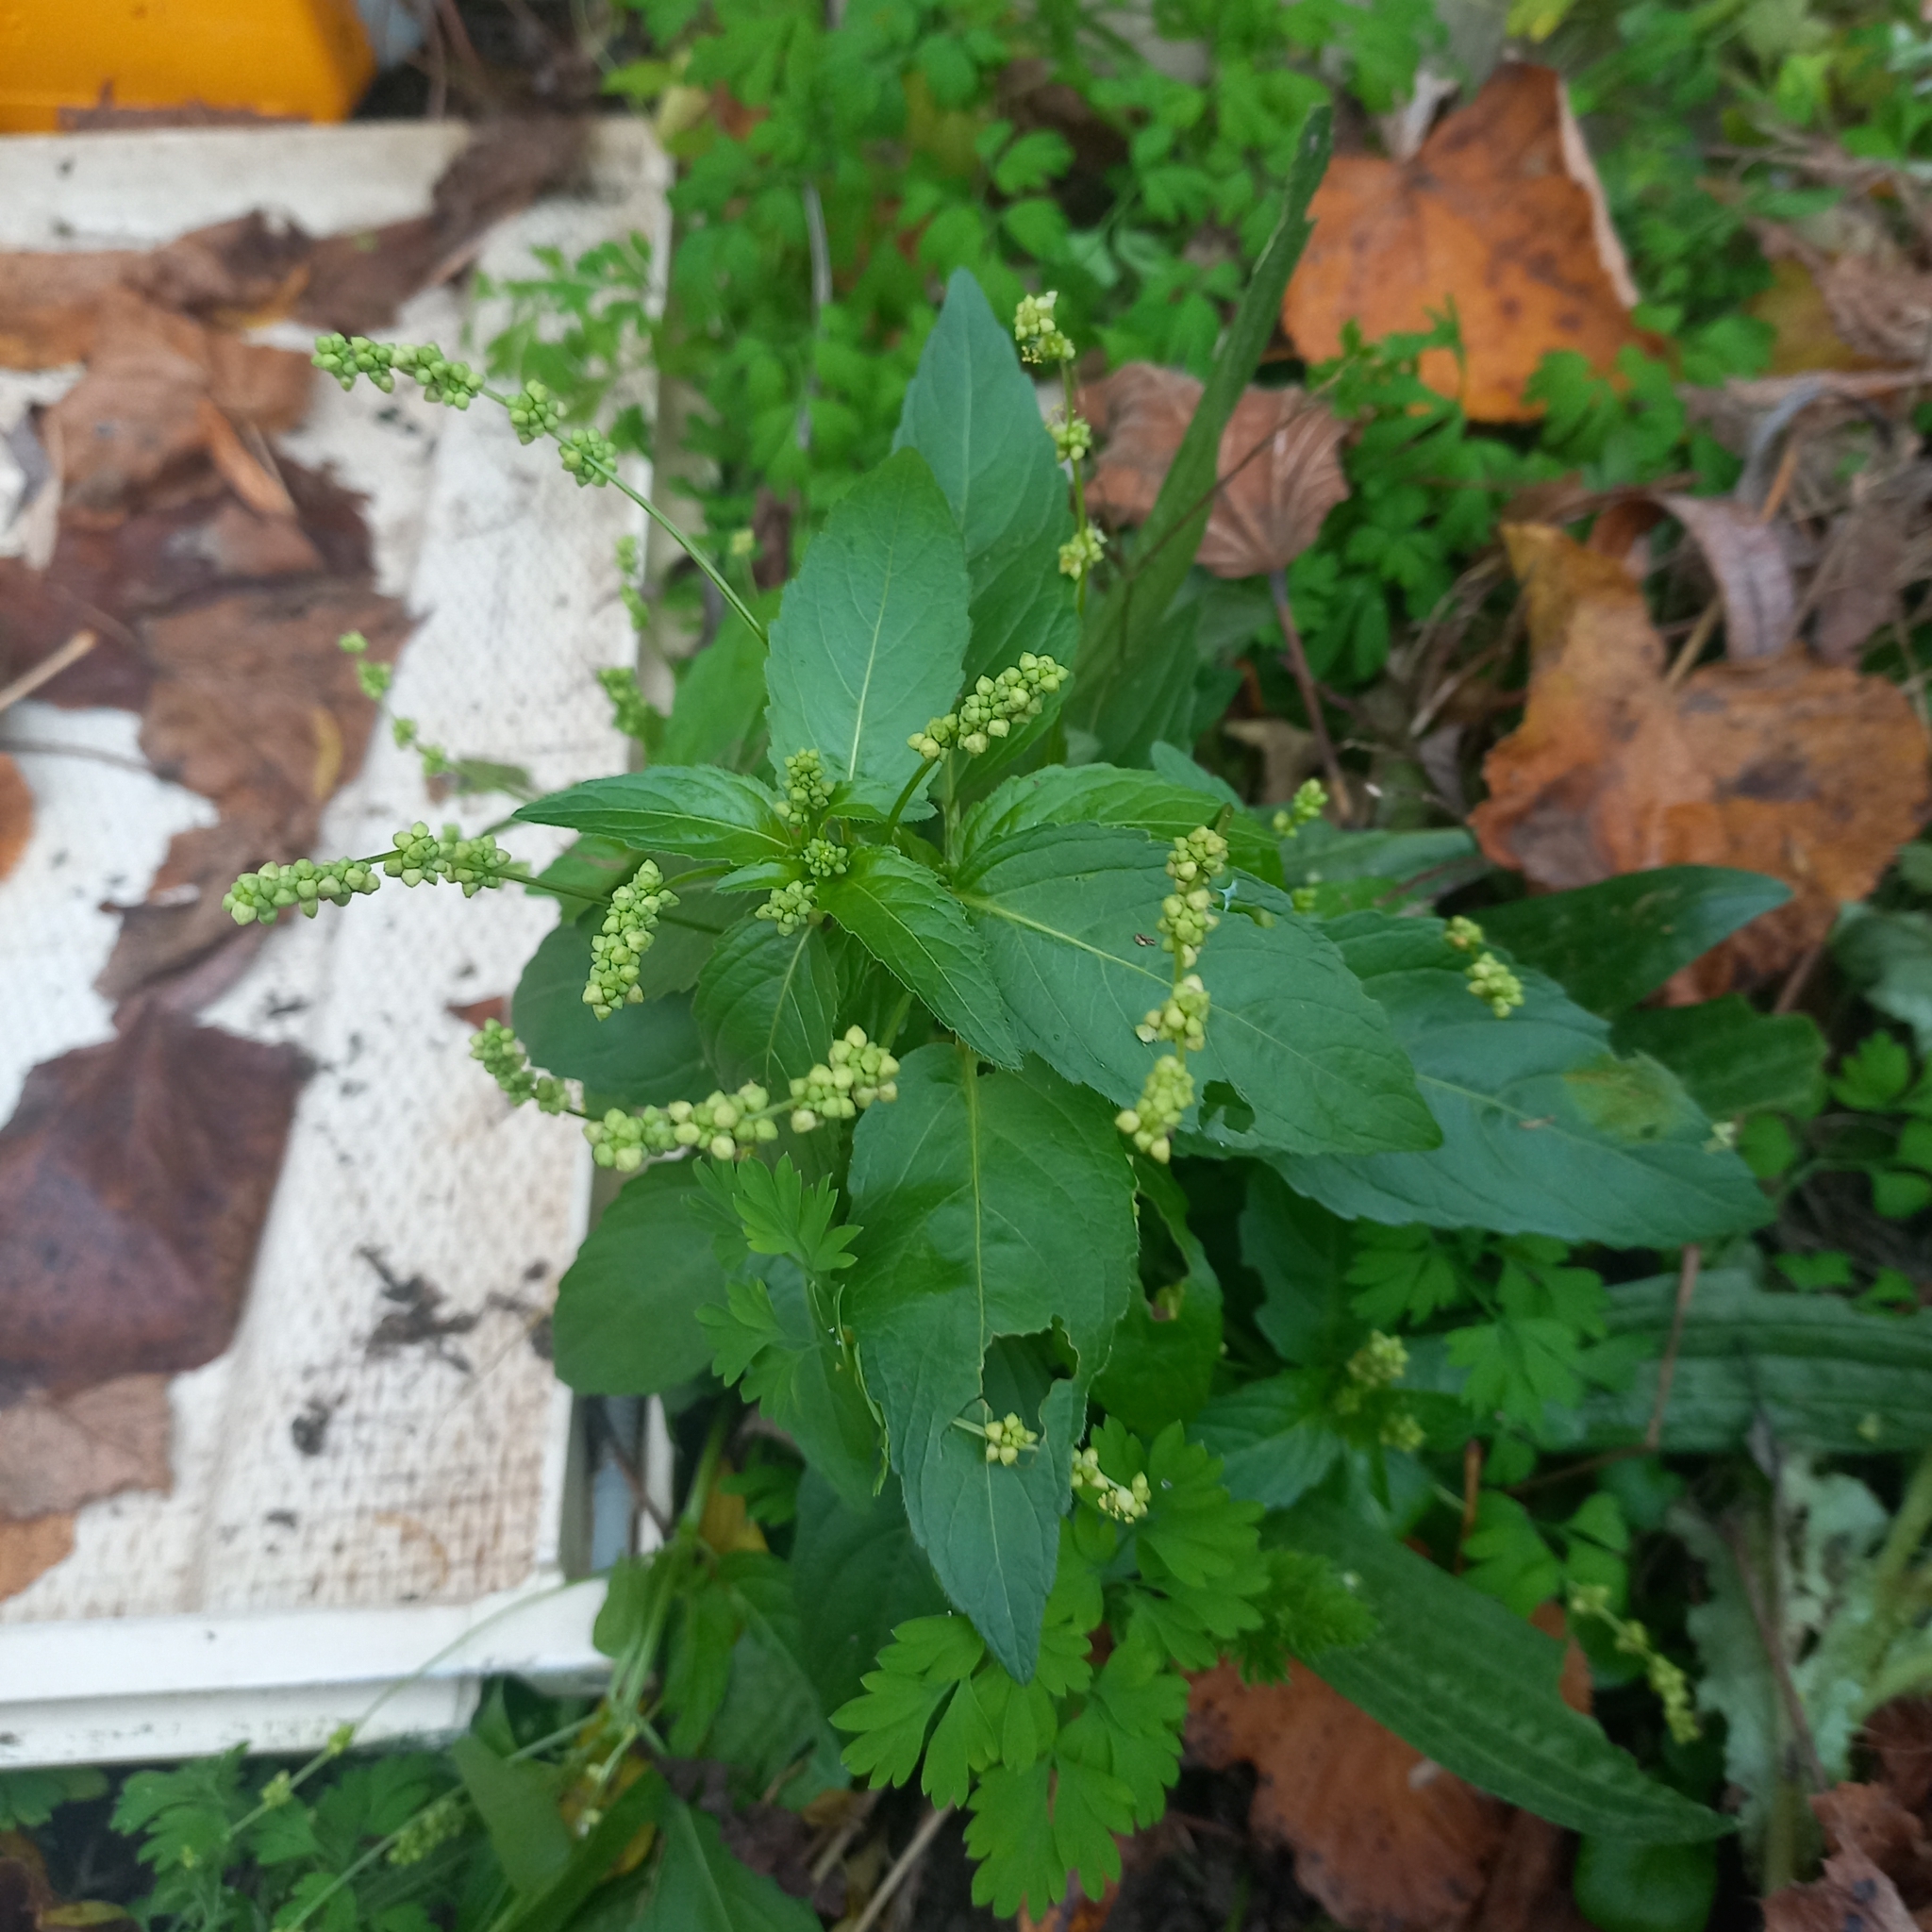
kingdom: Plantae
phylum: Tracheophyta
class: Magnoliopsida
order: Malpighiales
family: Euphorbiaceae
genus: Mercurialis
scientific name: Mercurialis annua
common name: Annual mercury
